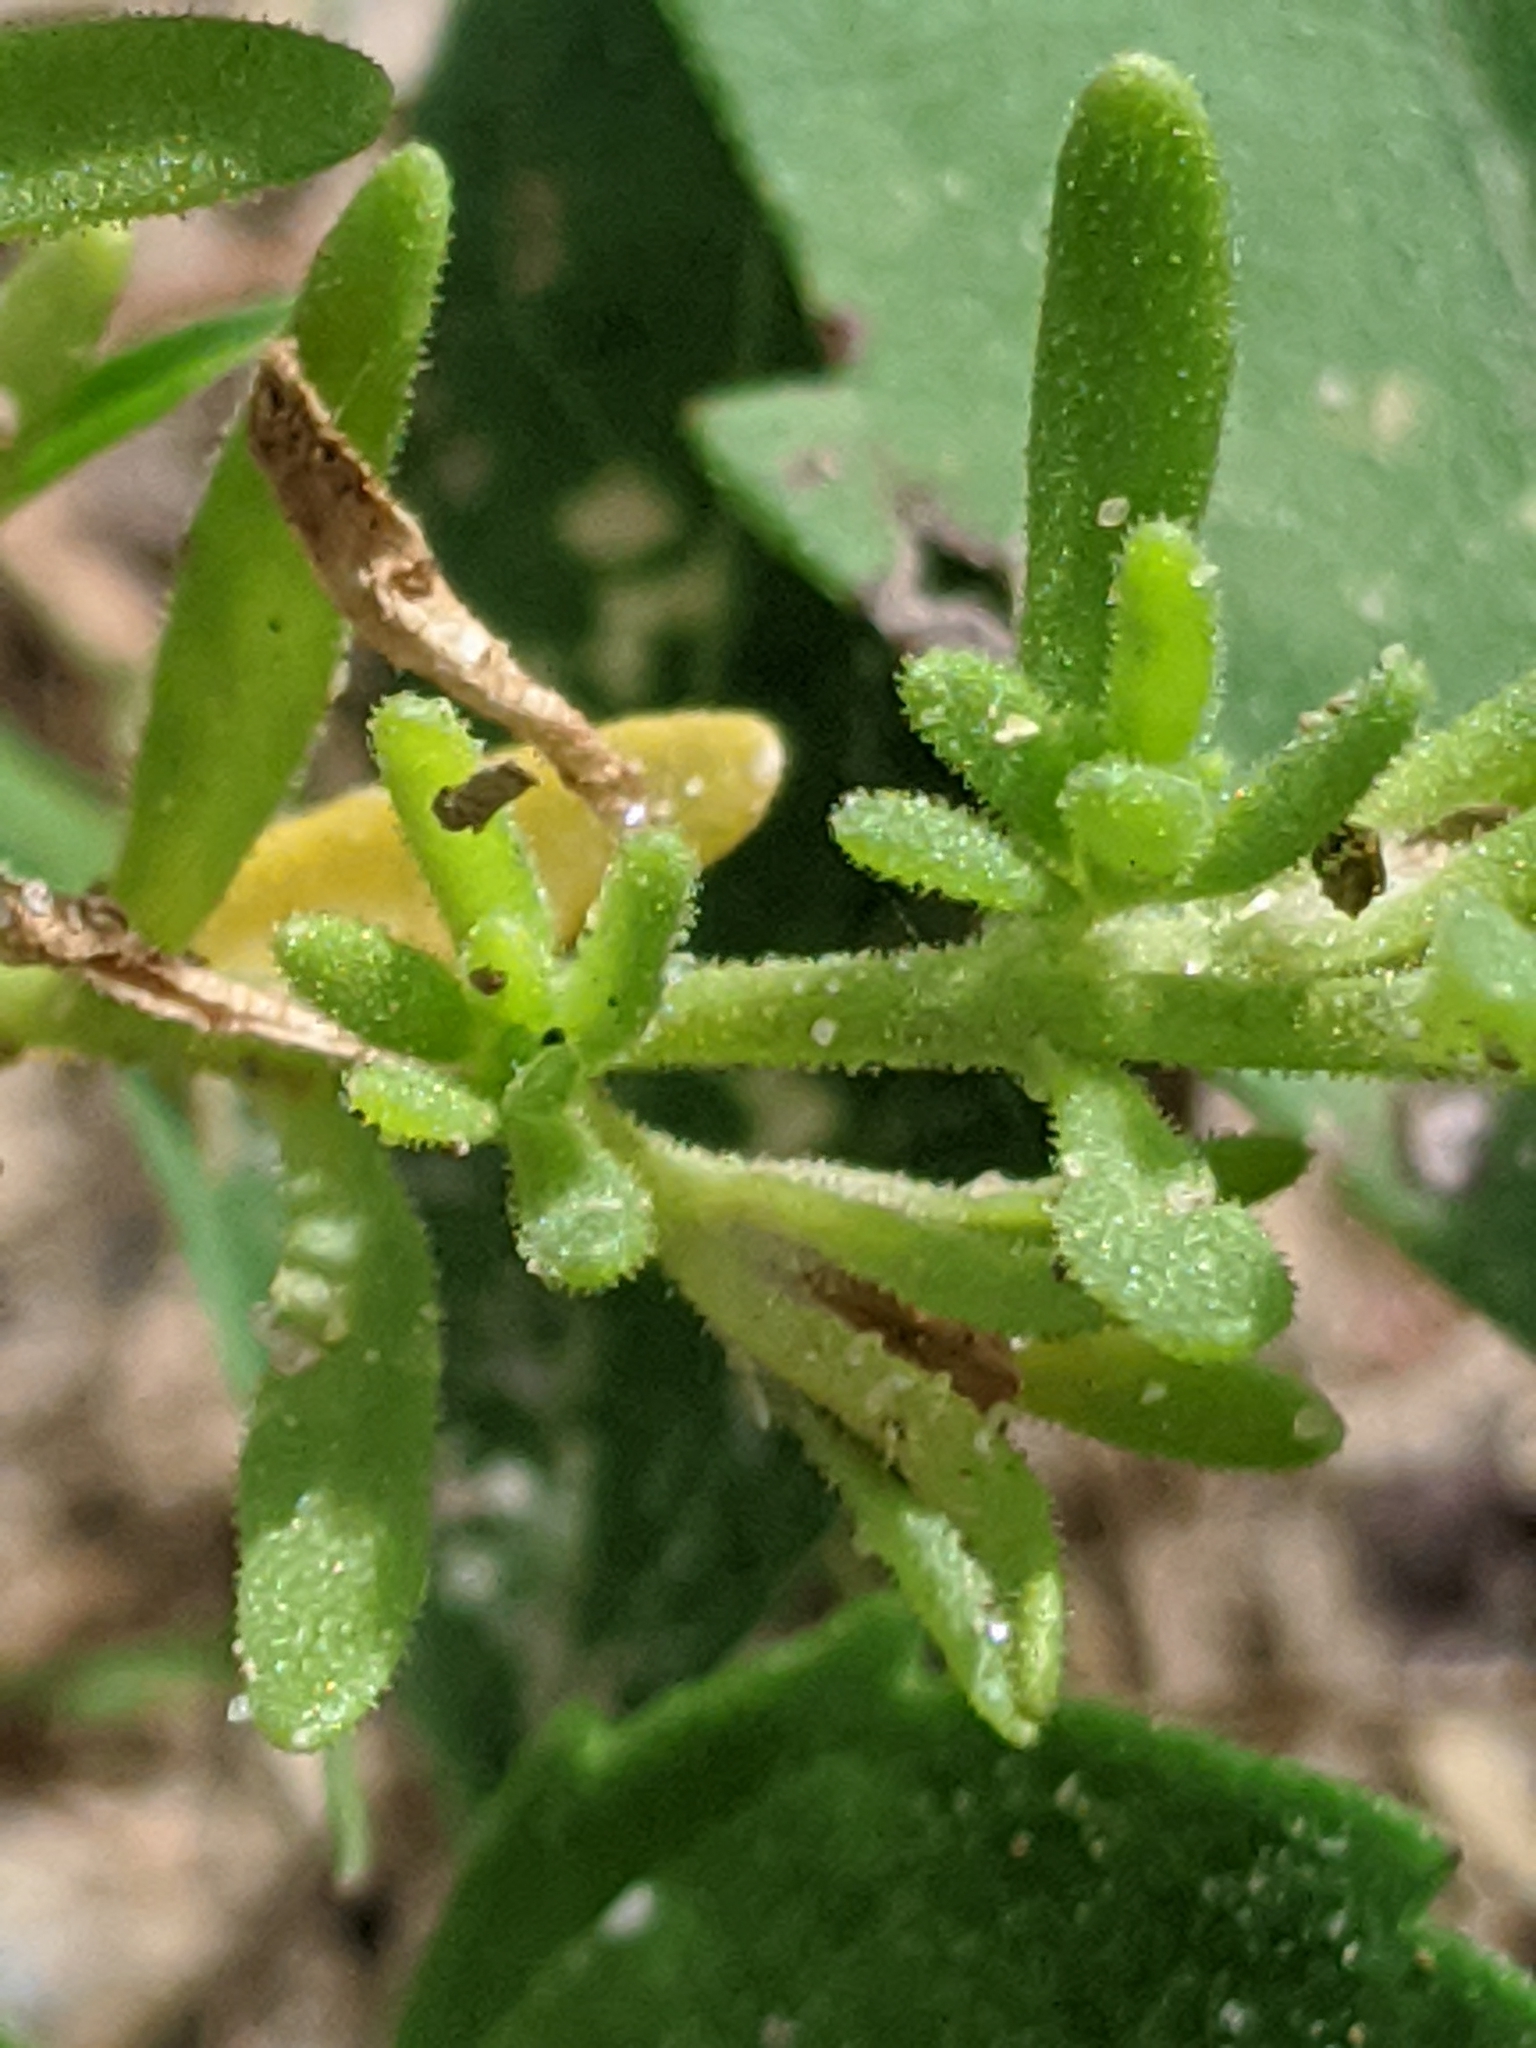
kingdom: Plantae
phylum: Tracheophyta
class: Magnoliopsida
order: Solanales
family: Solanaceae
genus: Calibrachoa
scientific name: Calibrachoa parviflora
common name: Seaside petunia
